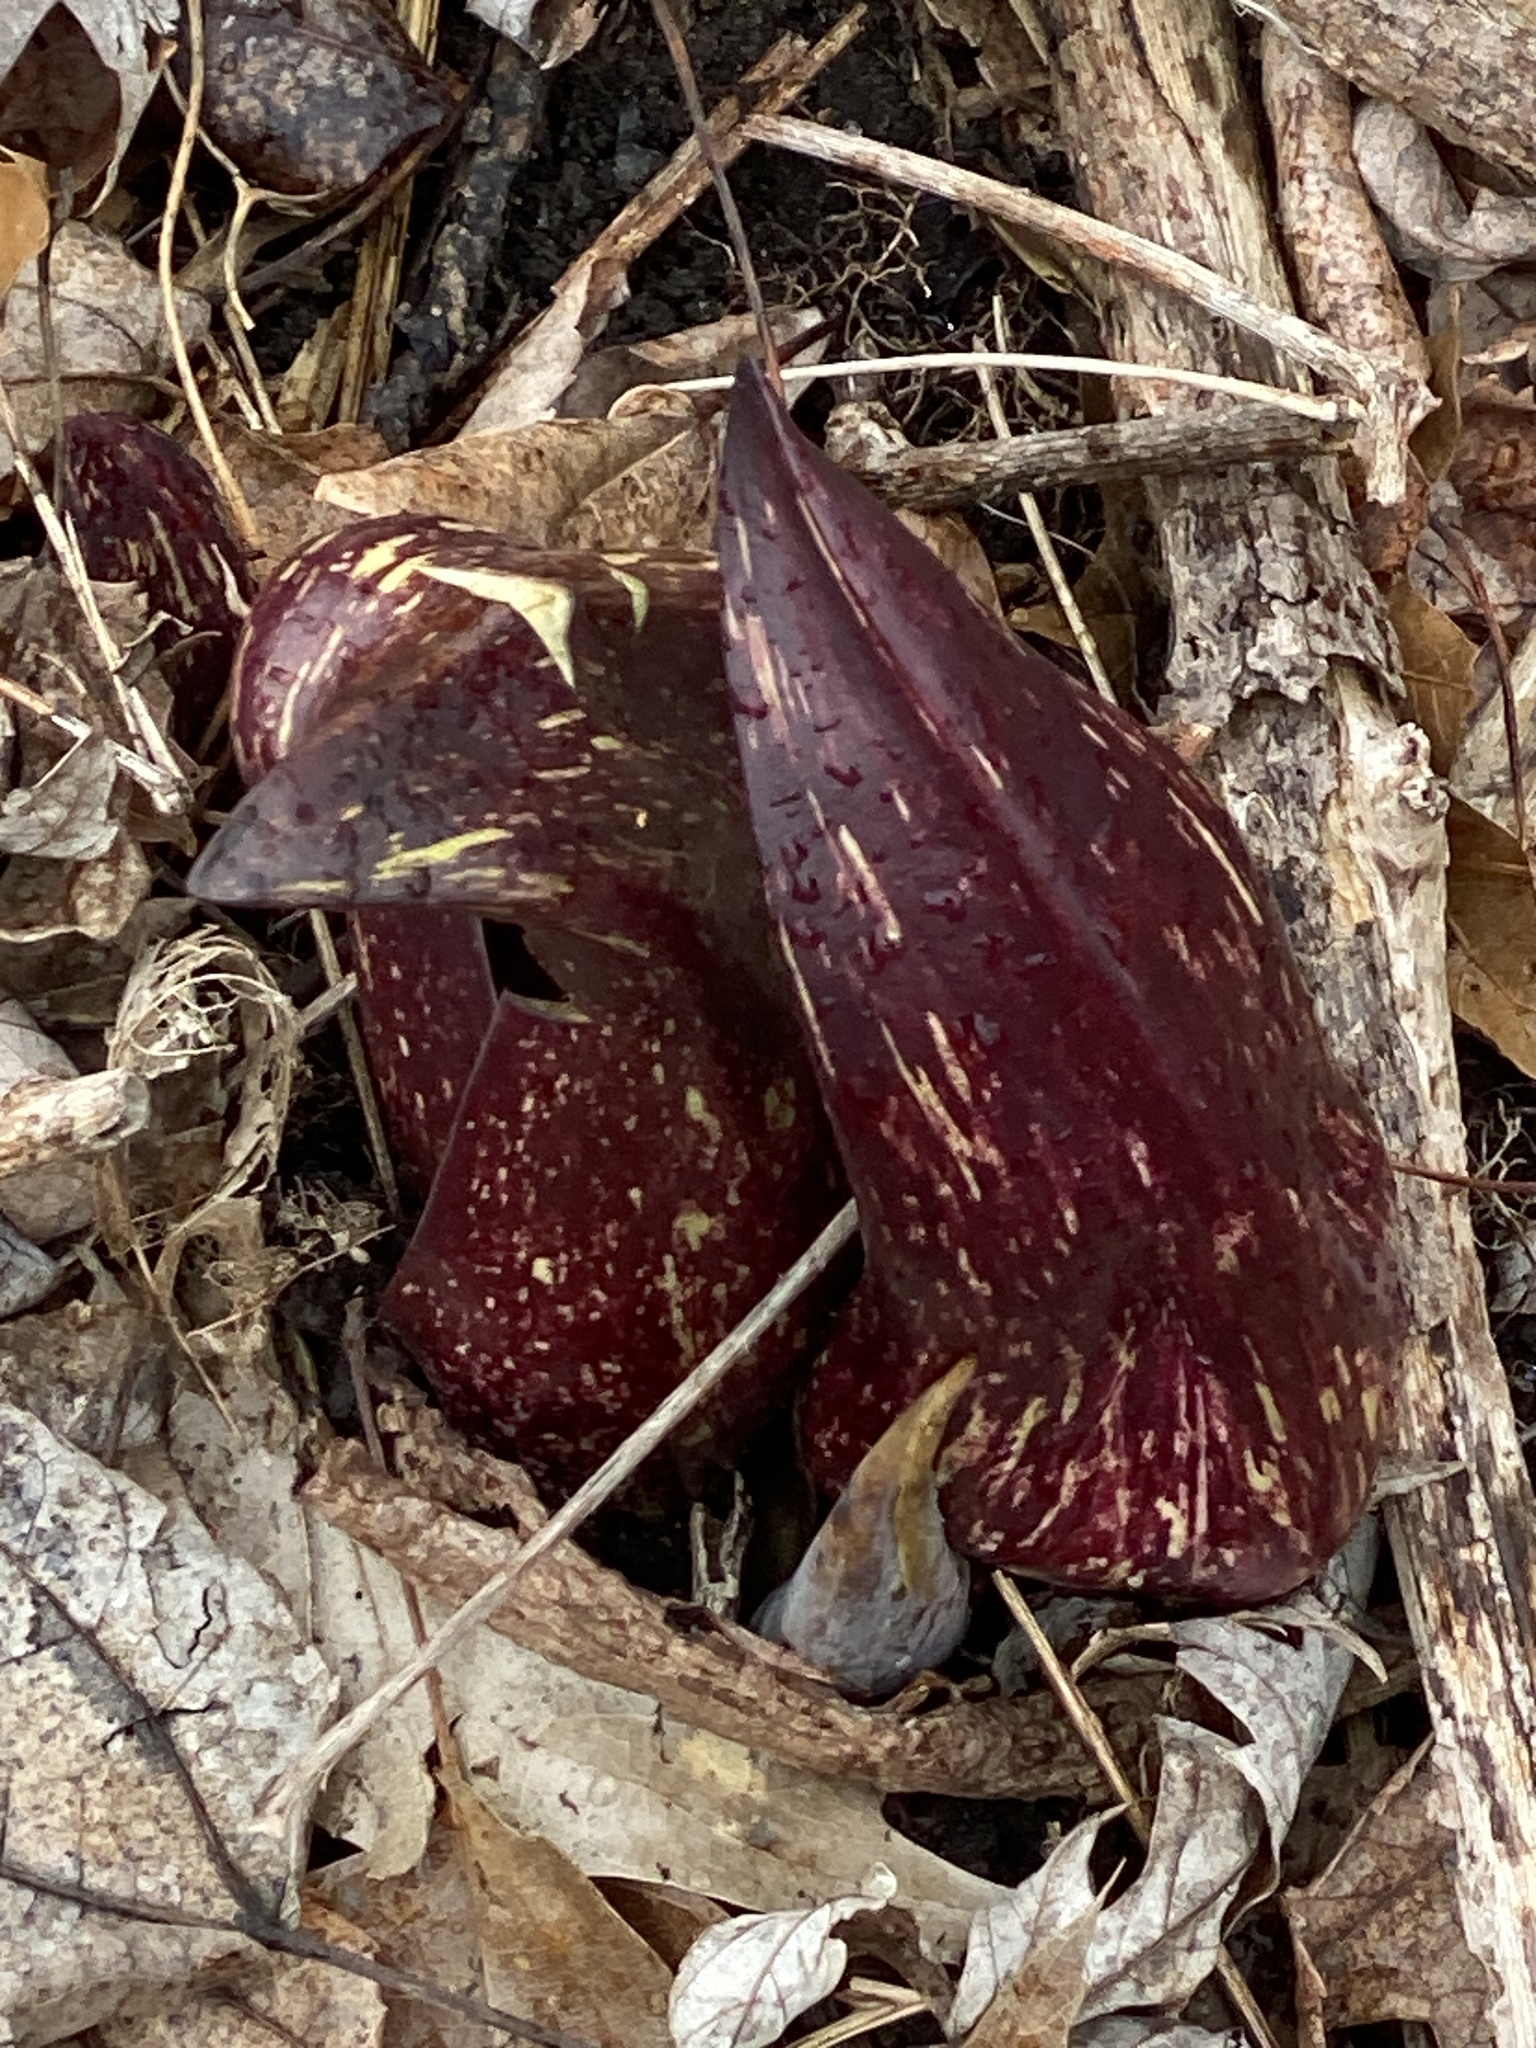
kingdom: Plantae
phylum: Tracheophyta
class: Liliopsida
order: Alismatales
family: Araceae
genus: Symplocarpus
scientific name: Symplocarpus foetidus
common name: Eastern skunk cabbage
